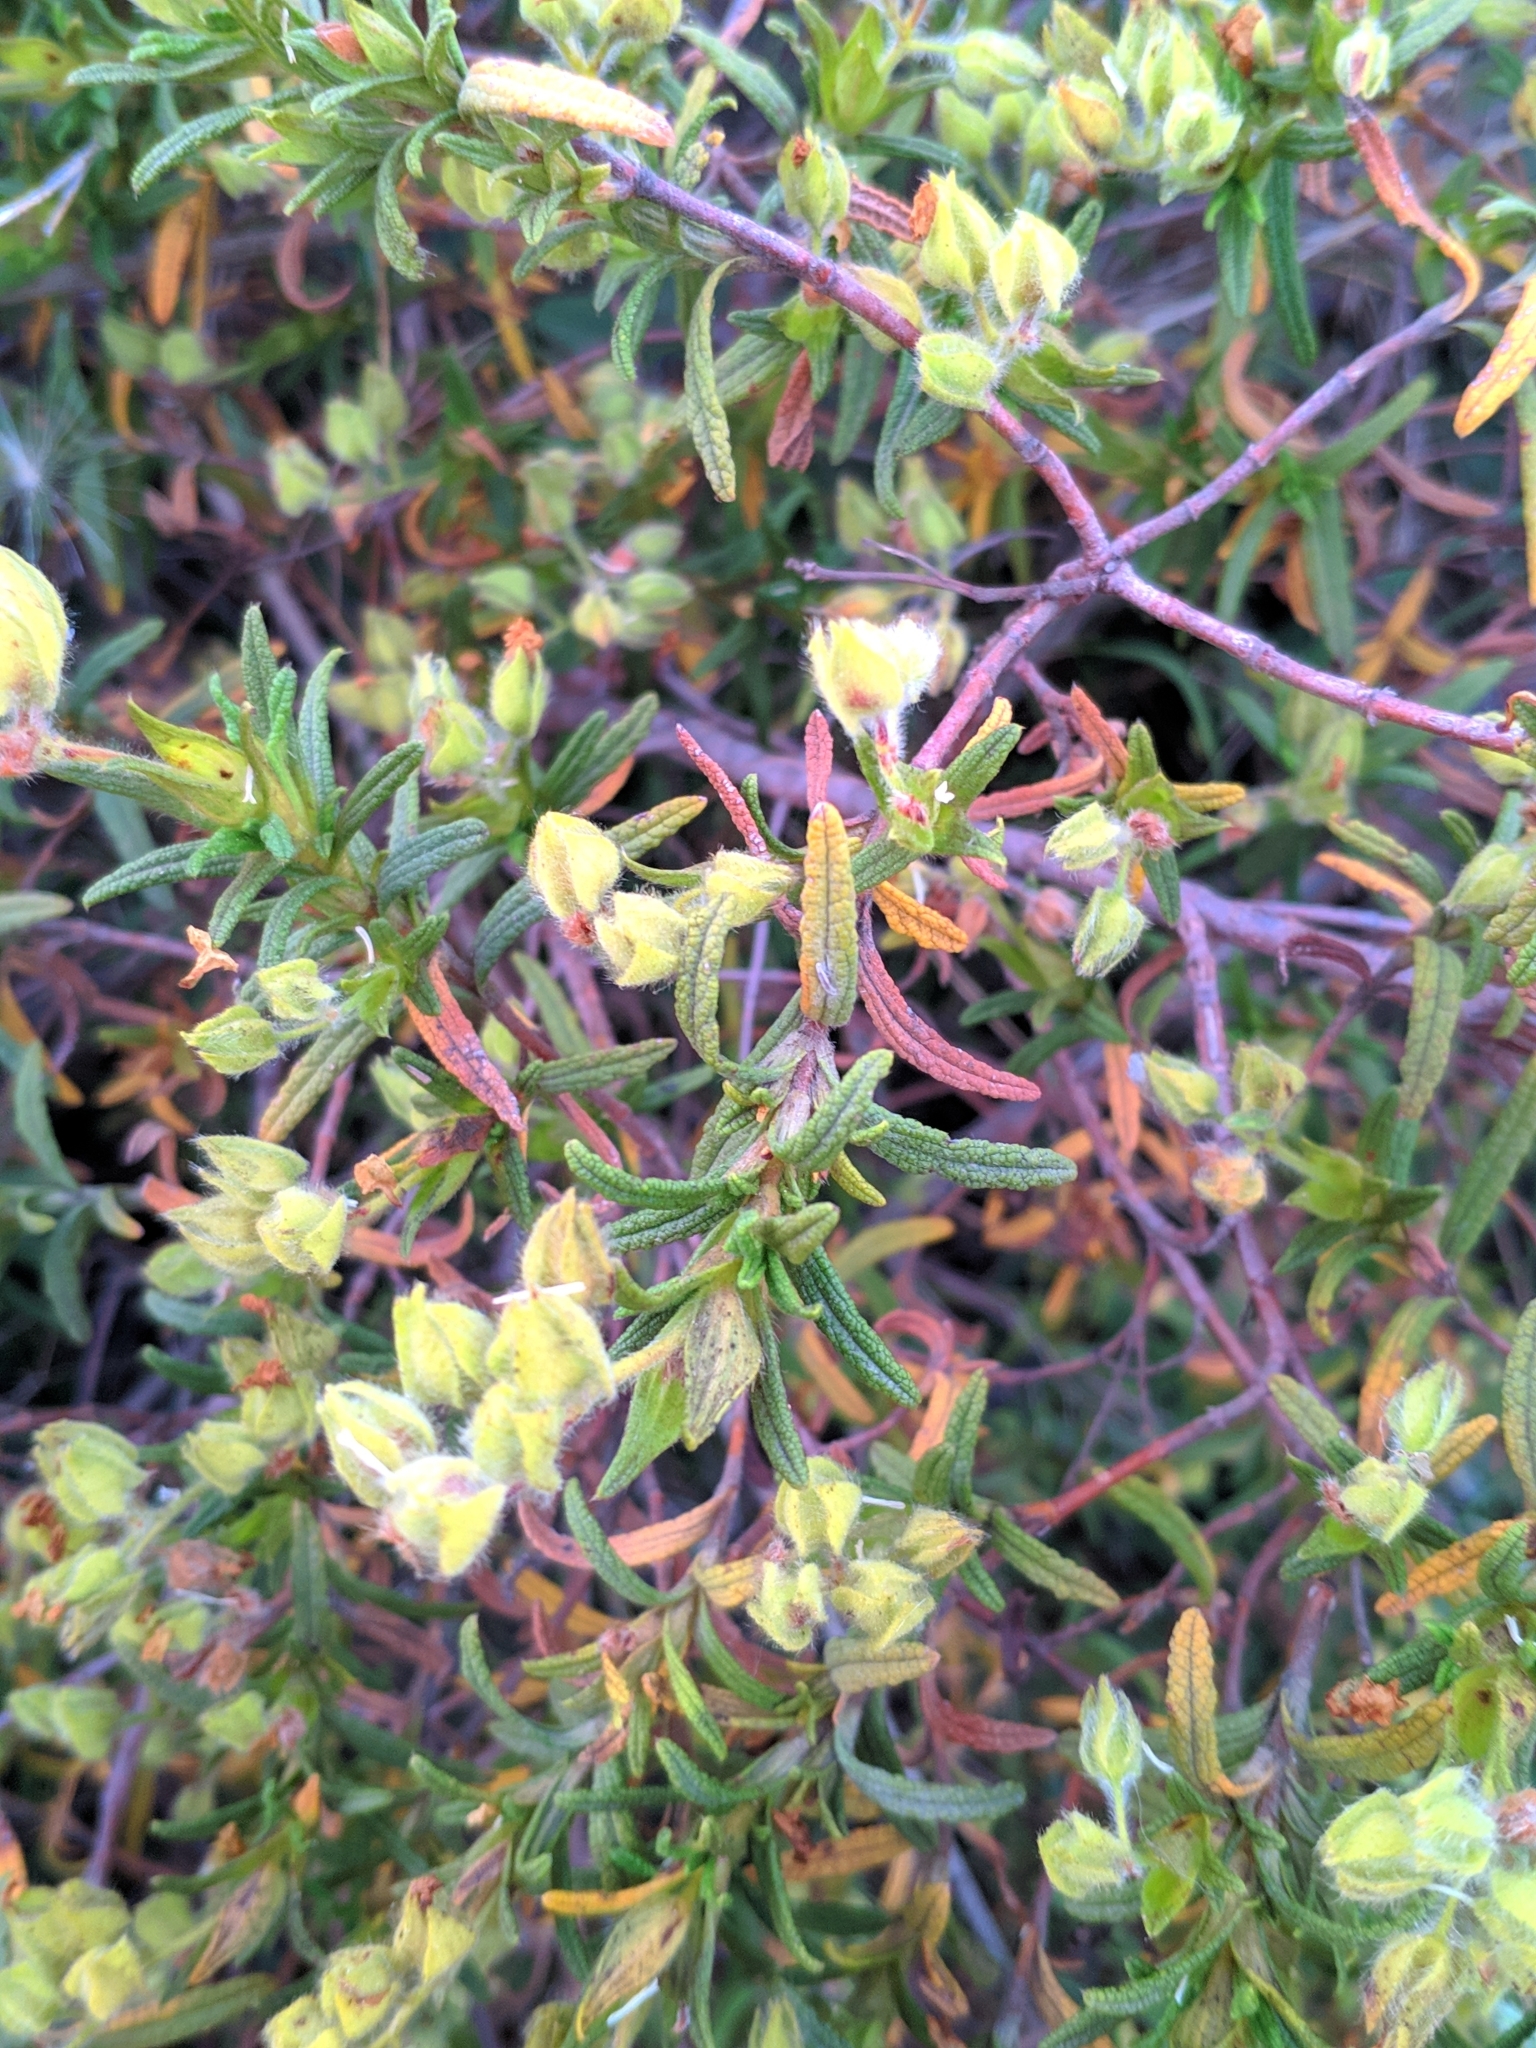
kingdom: Plantae
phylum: Tracheophyta
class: Magnoliopsida
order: Malvales
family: Cistaceae
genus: Cistus
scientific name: Cistus monspeliensis
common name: Montpelier cistus
